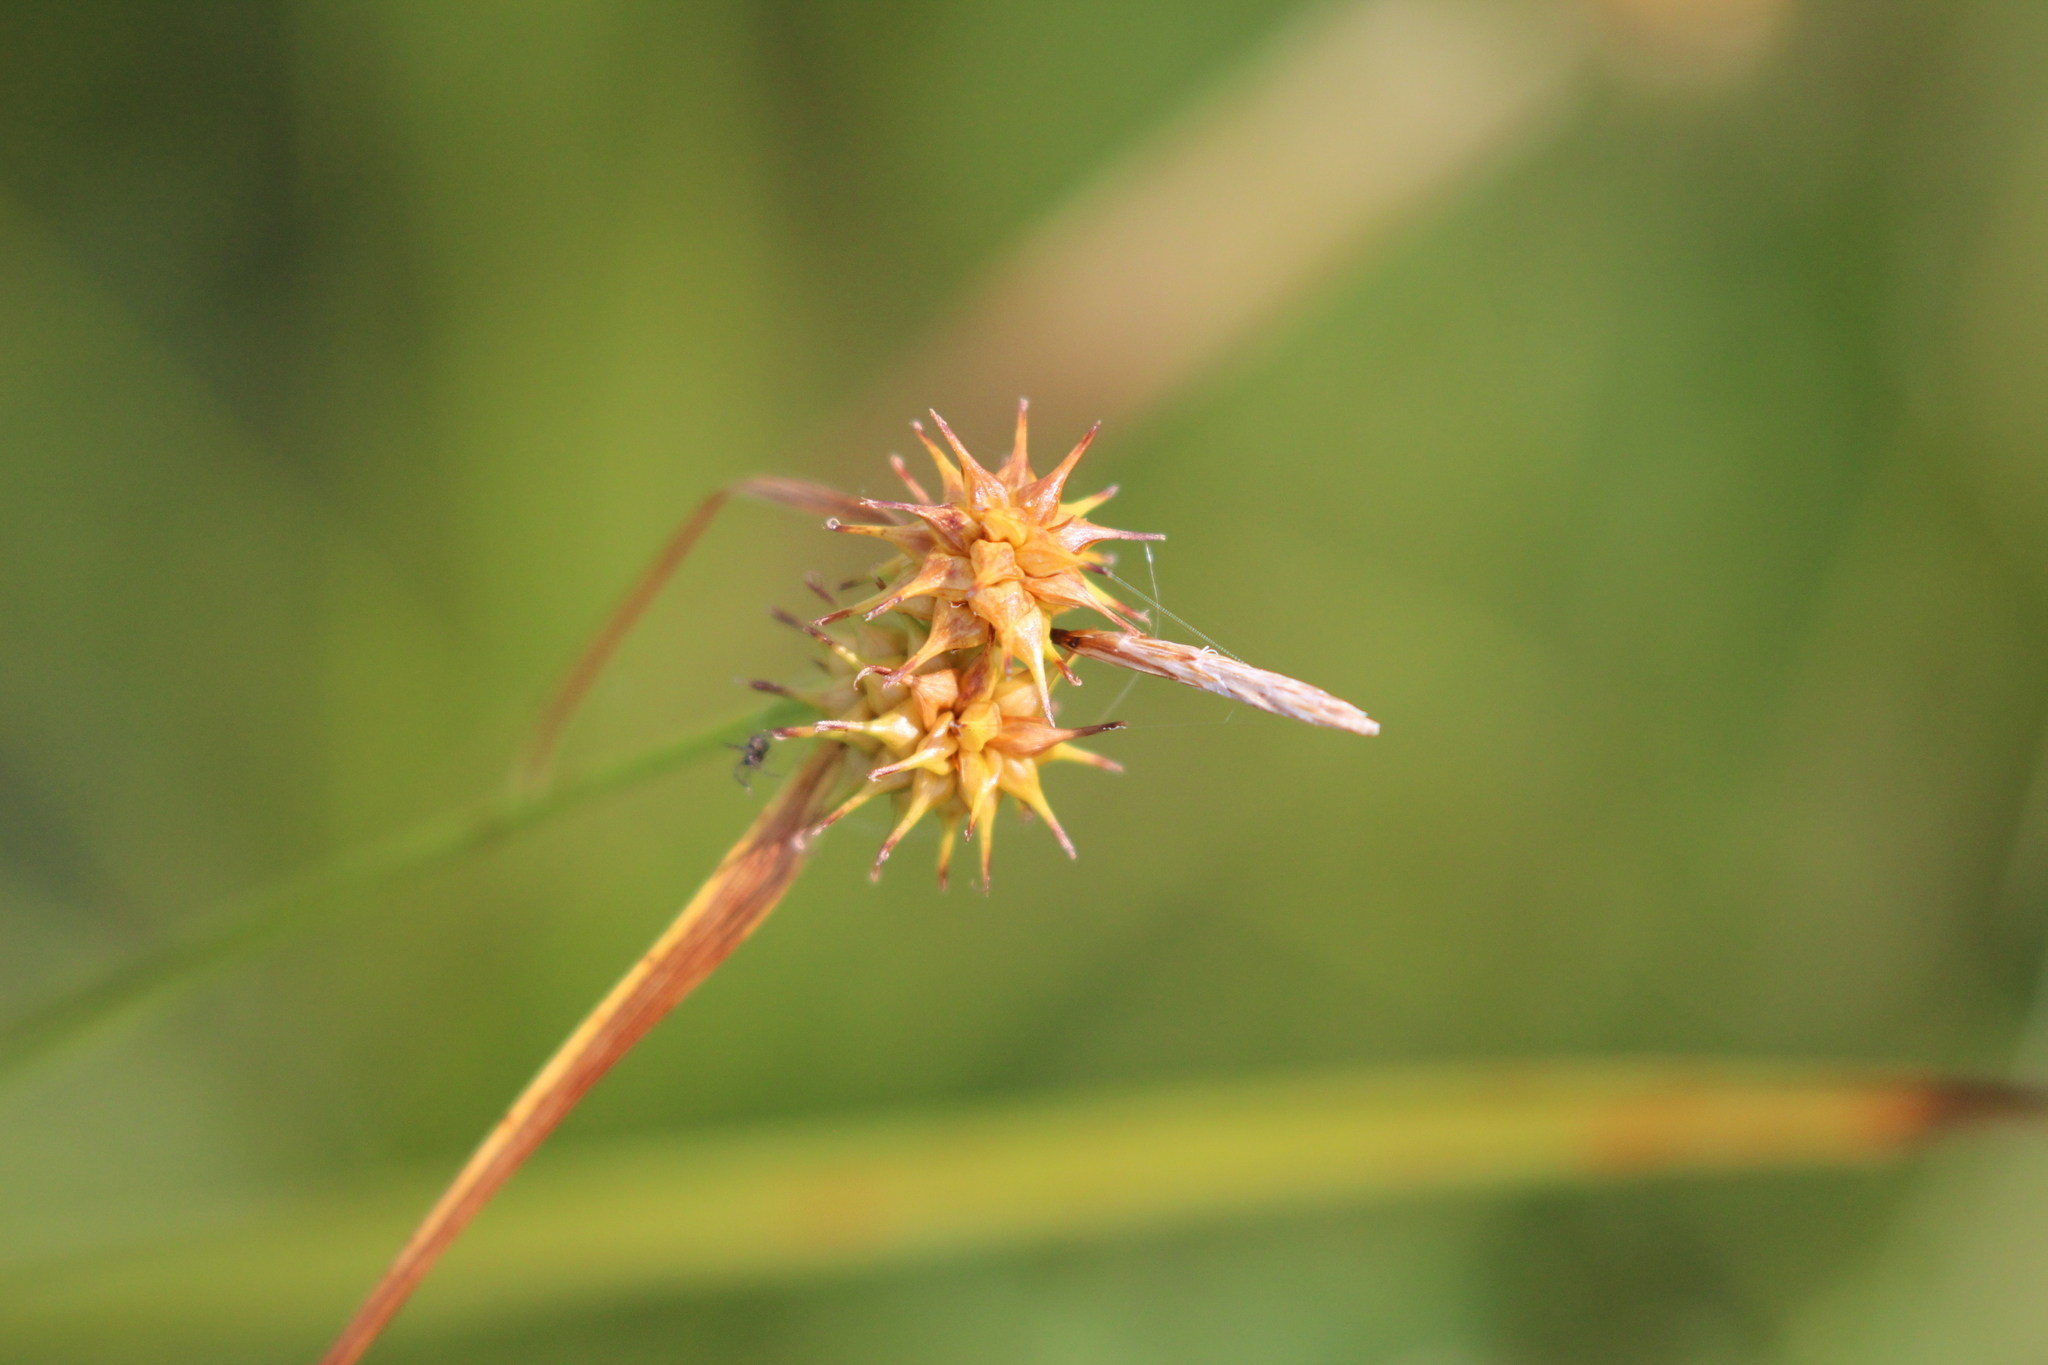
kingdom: Plantae
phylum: Tracheophyta
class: Liliopsida
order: Poales
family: Cyperaceae
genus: Carex
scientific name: Carex flava
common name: Large yellow-sedge
